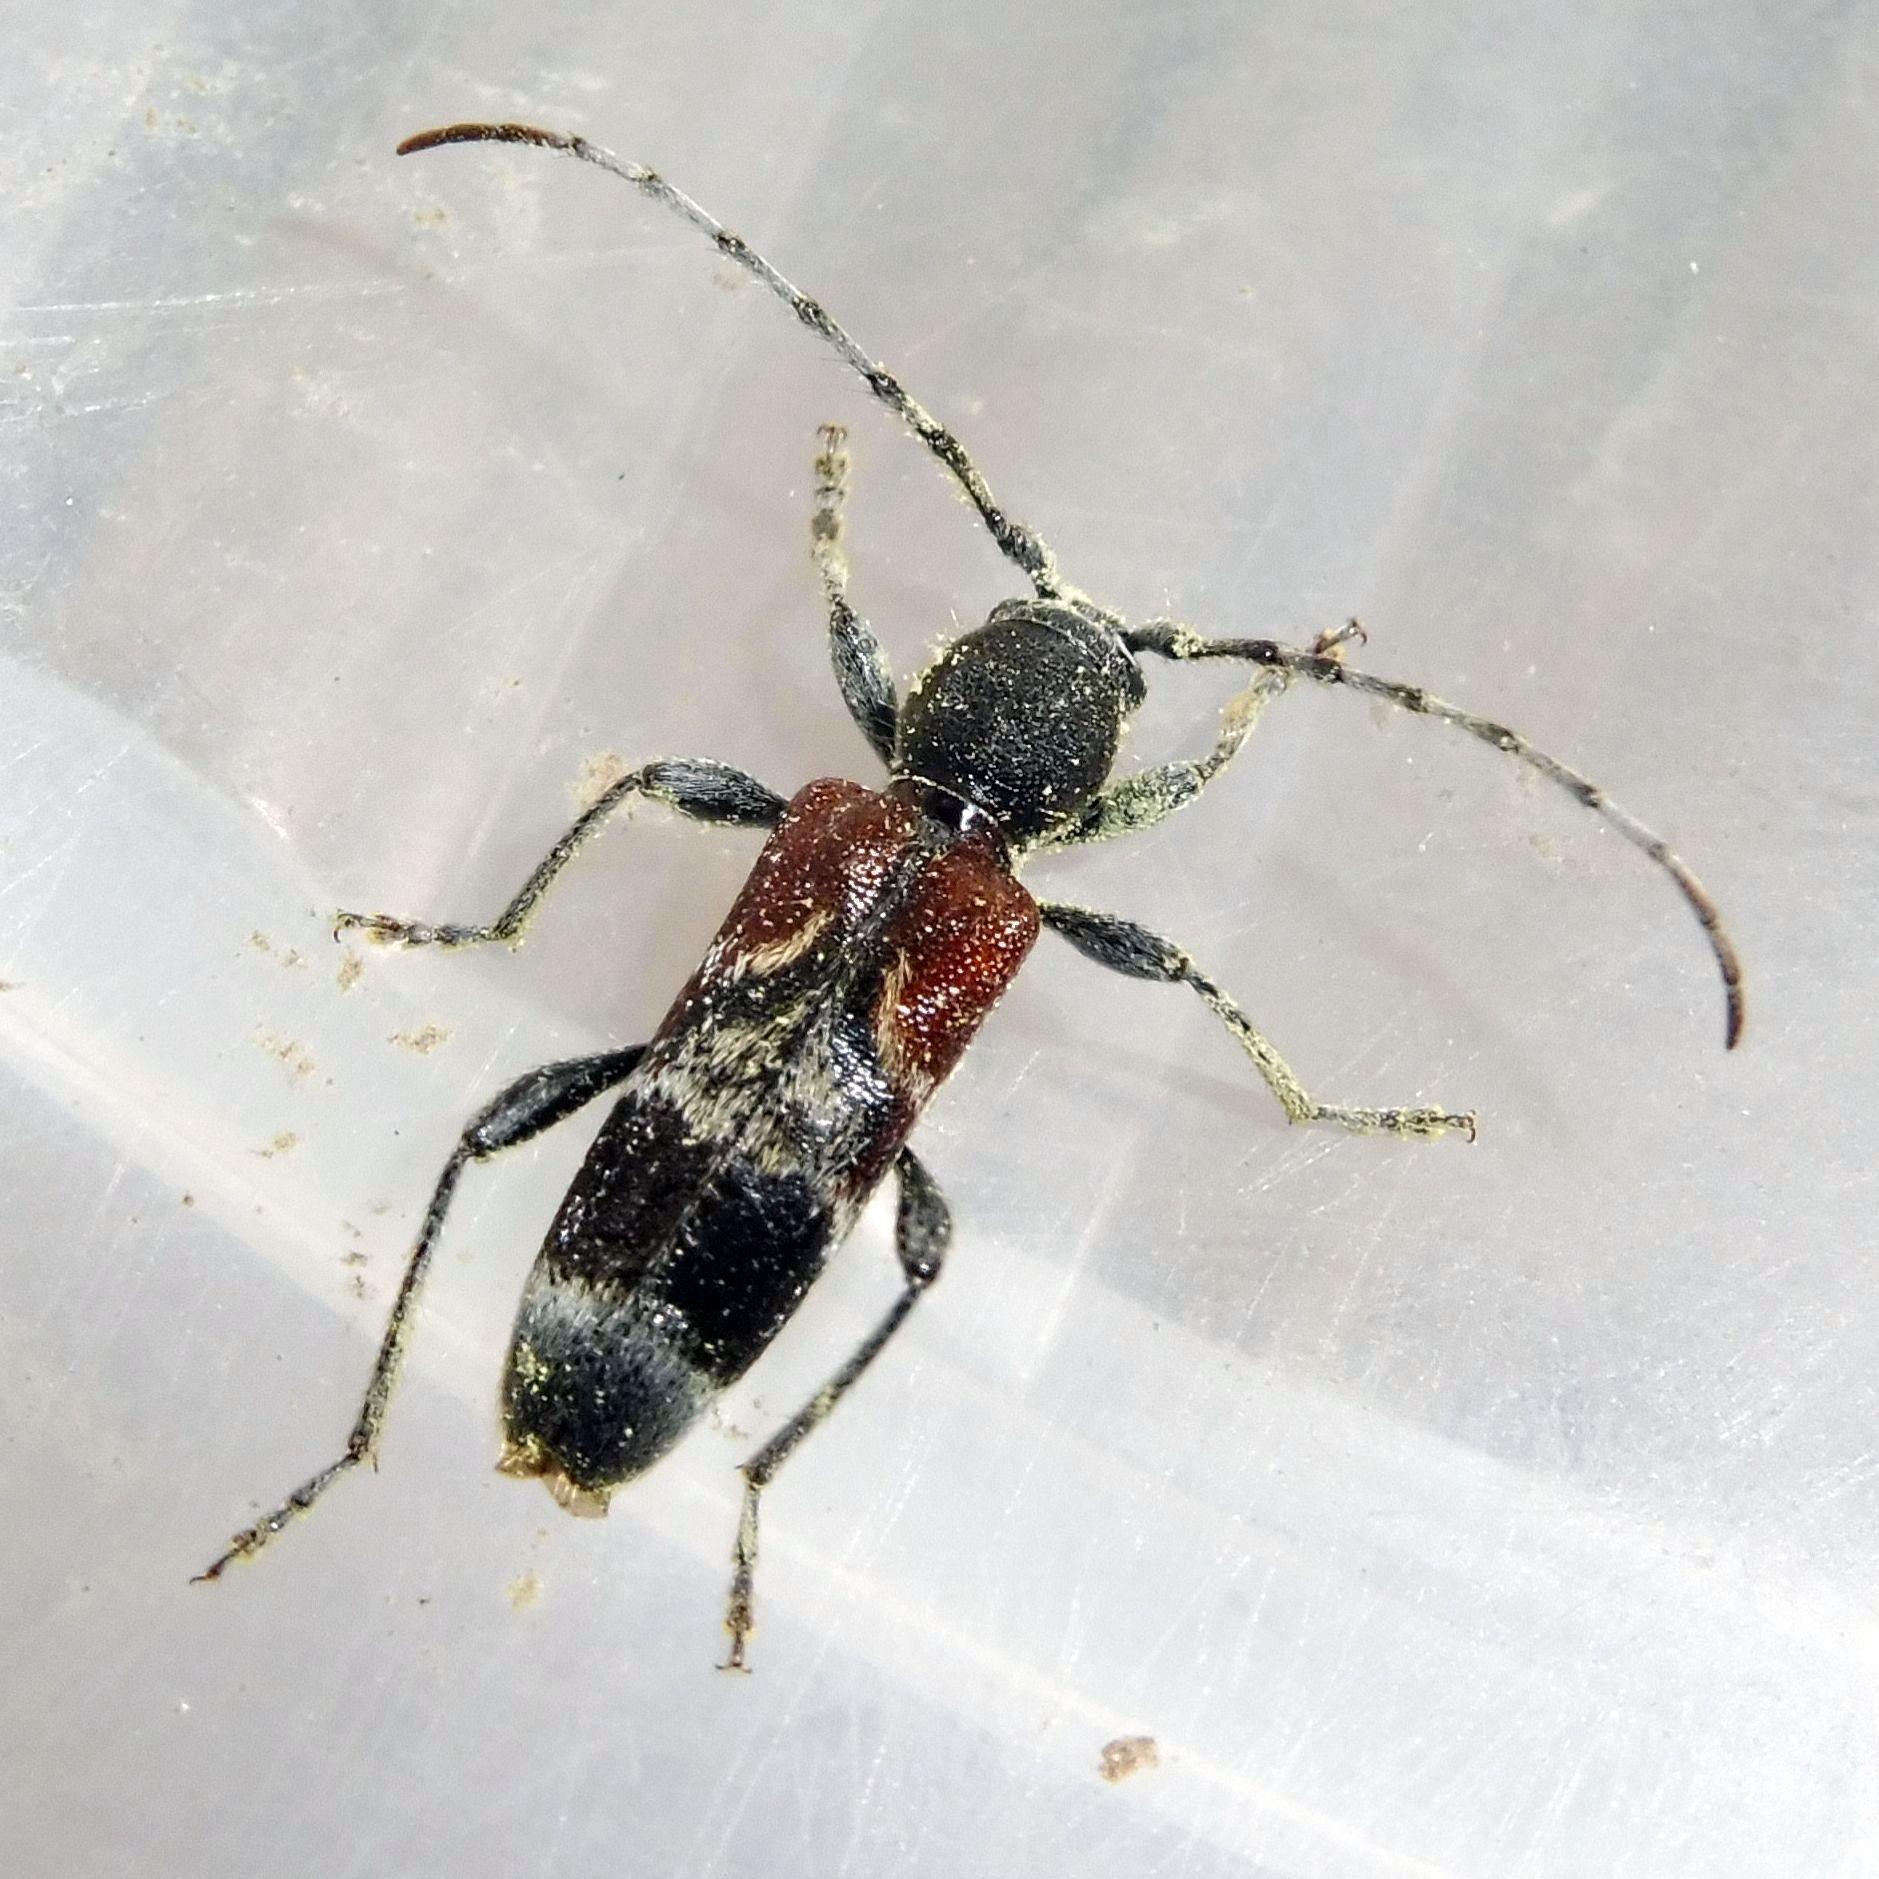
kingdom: Animalia
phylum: Arthropoda
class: Insecta
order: Coleoptera
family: Cerambycidae
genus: Anaglyptus
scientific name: Anaglyptus mysticus
